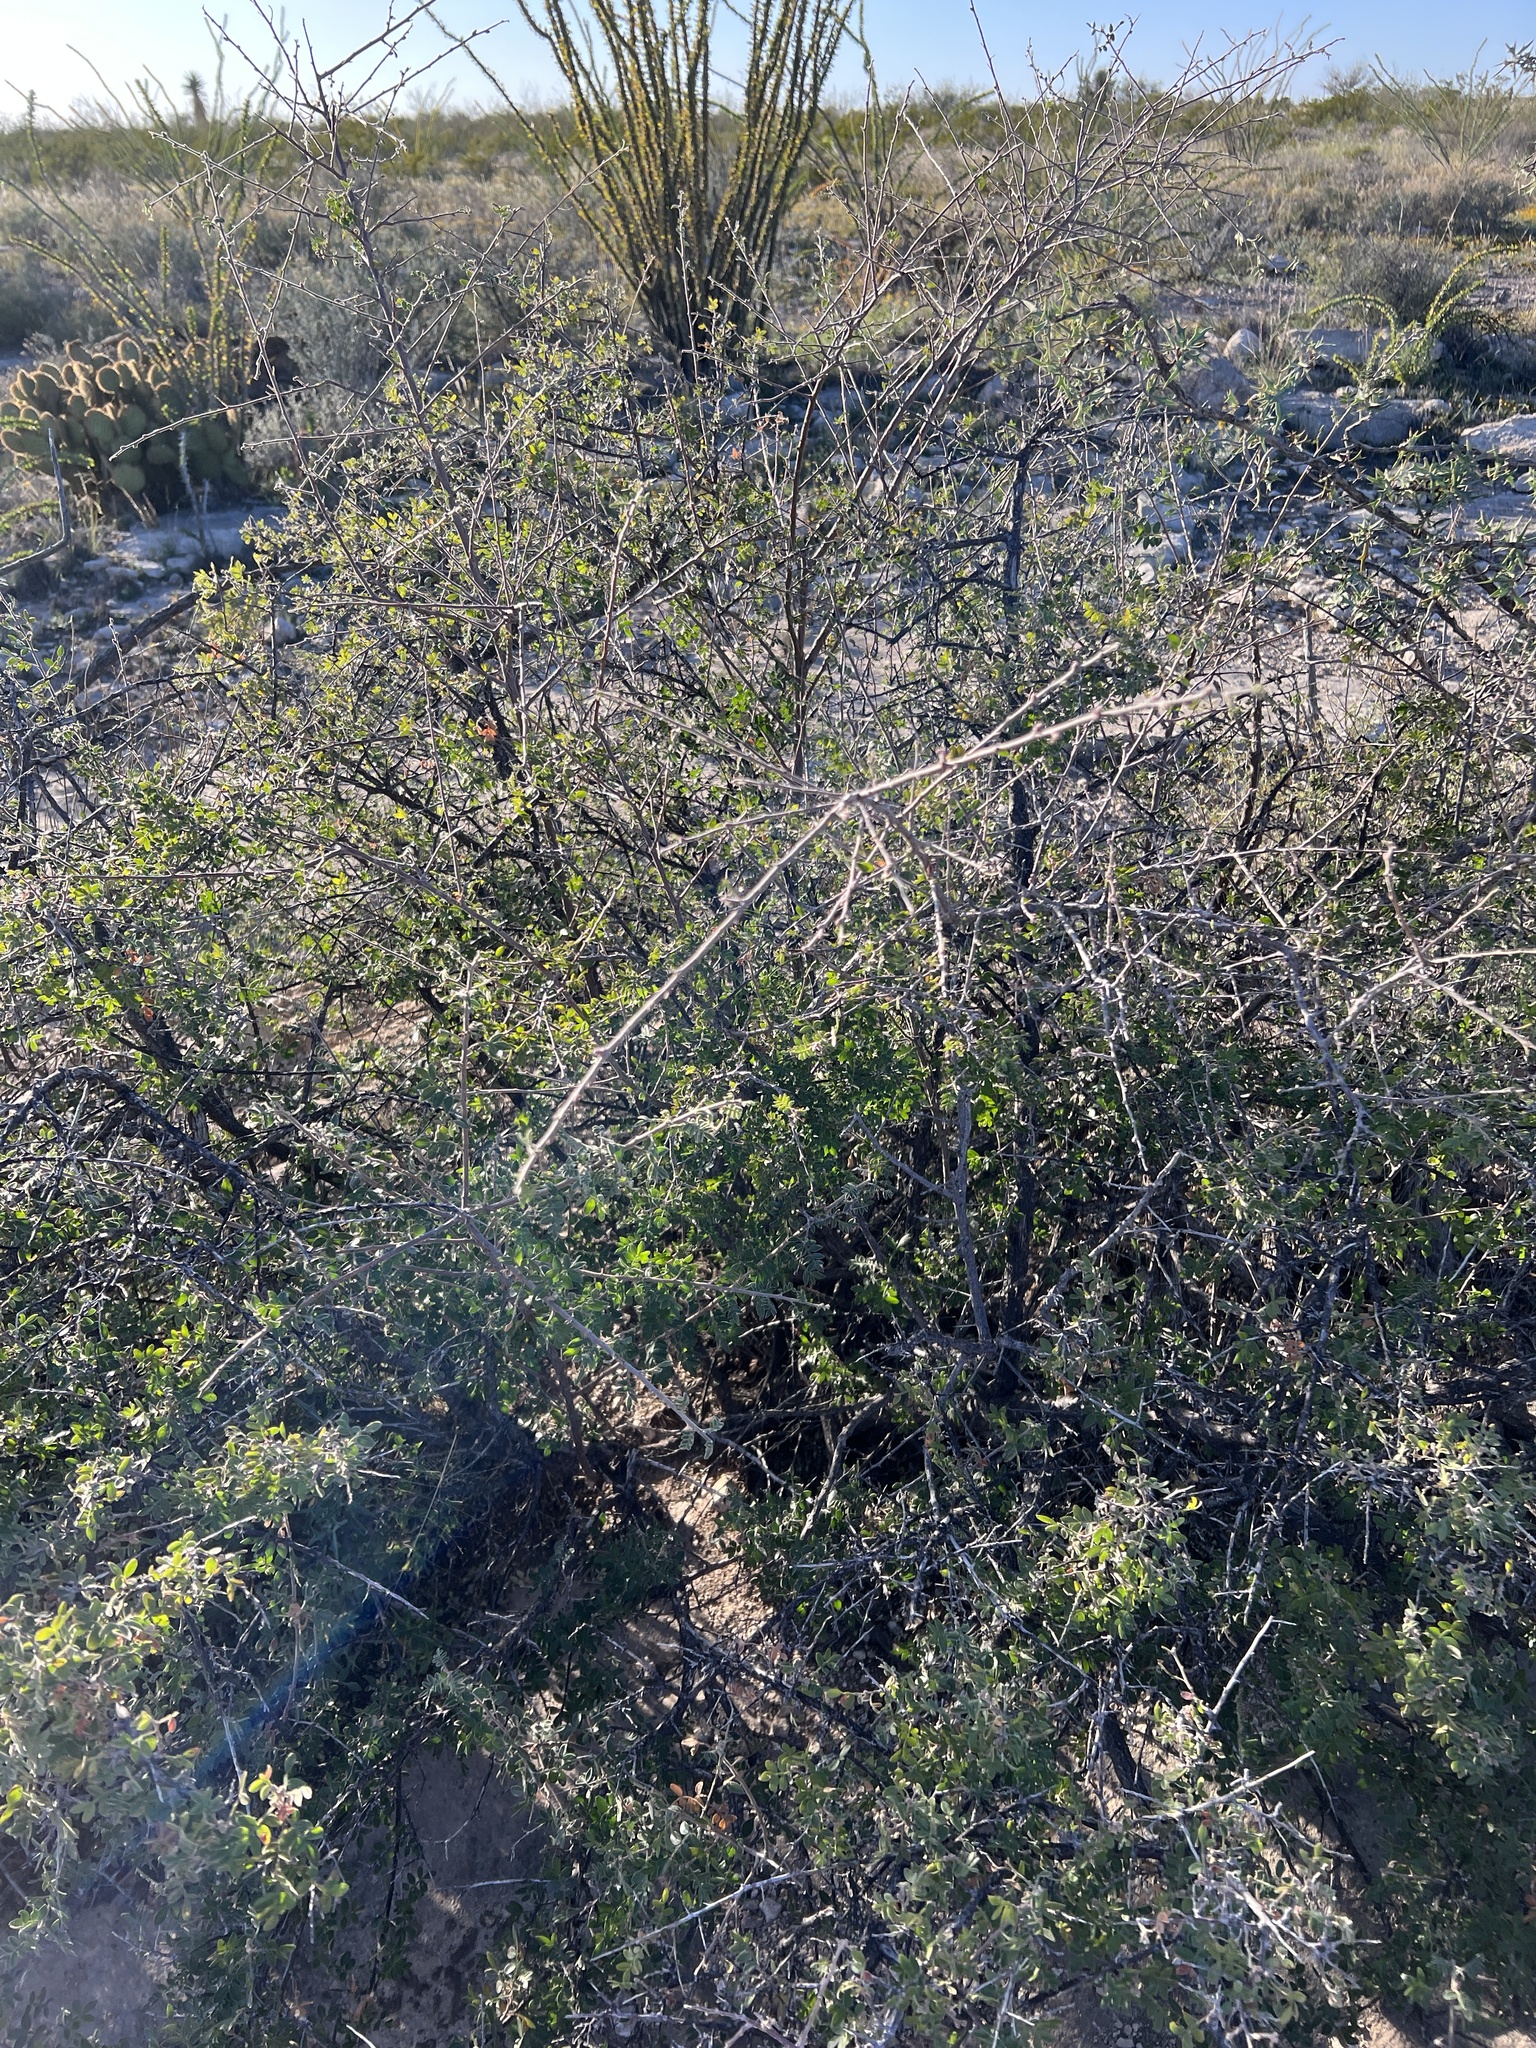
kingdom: Plantae
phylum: Tracheophyta
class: Magnoliopsida
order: Sapindales
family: Anacardiaceae
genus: Rhus
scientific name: Rhus microphylla
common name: Desert sumac
